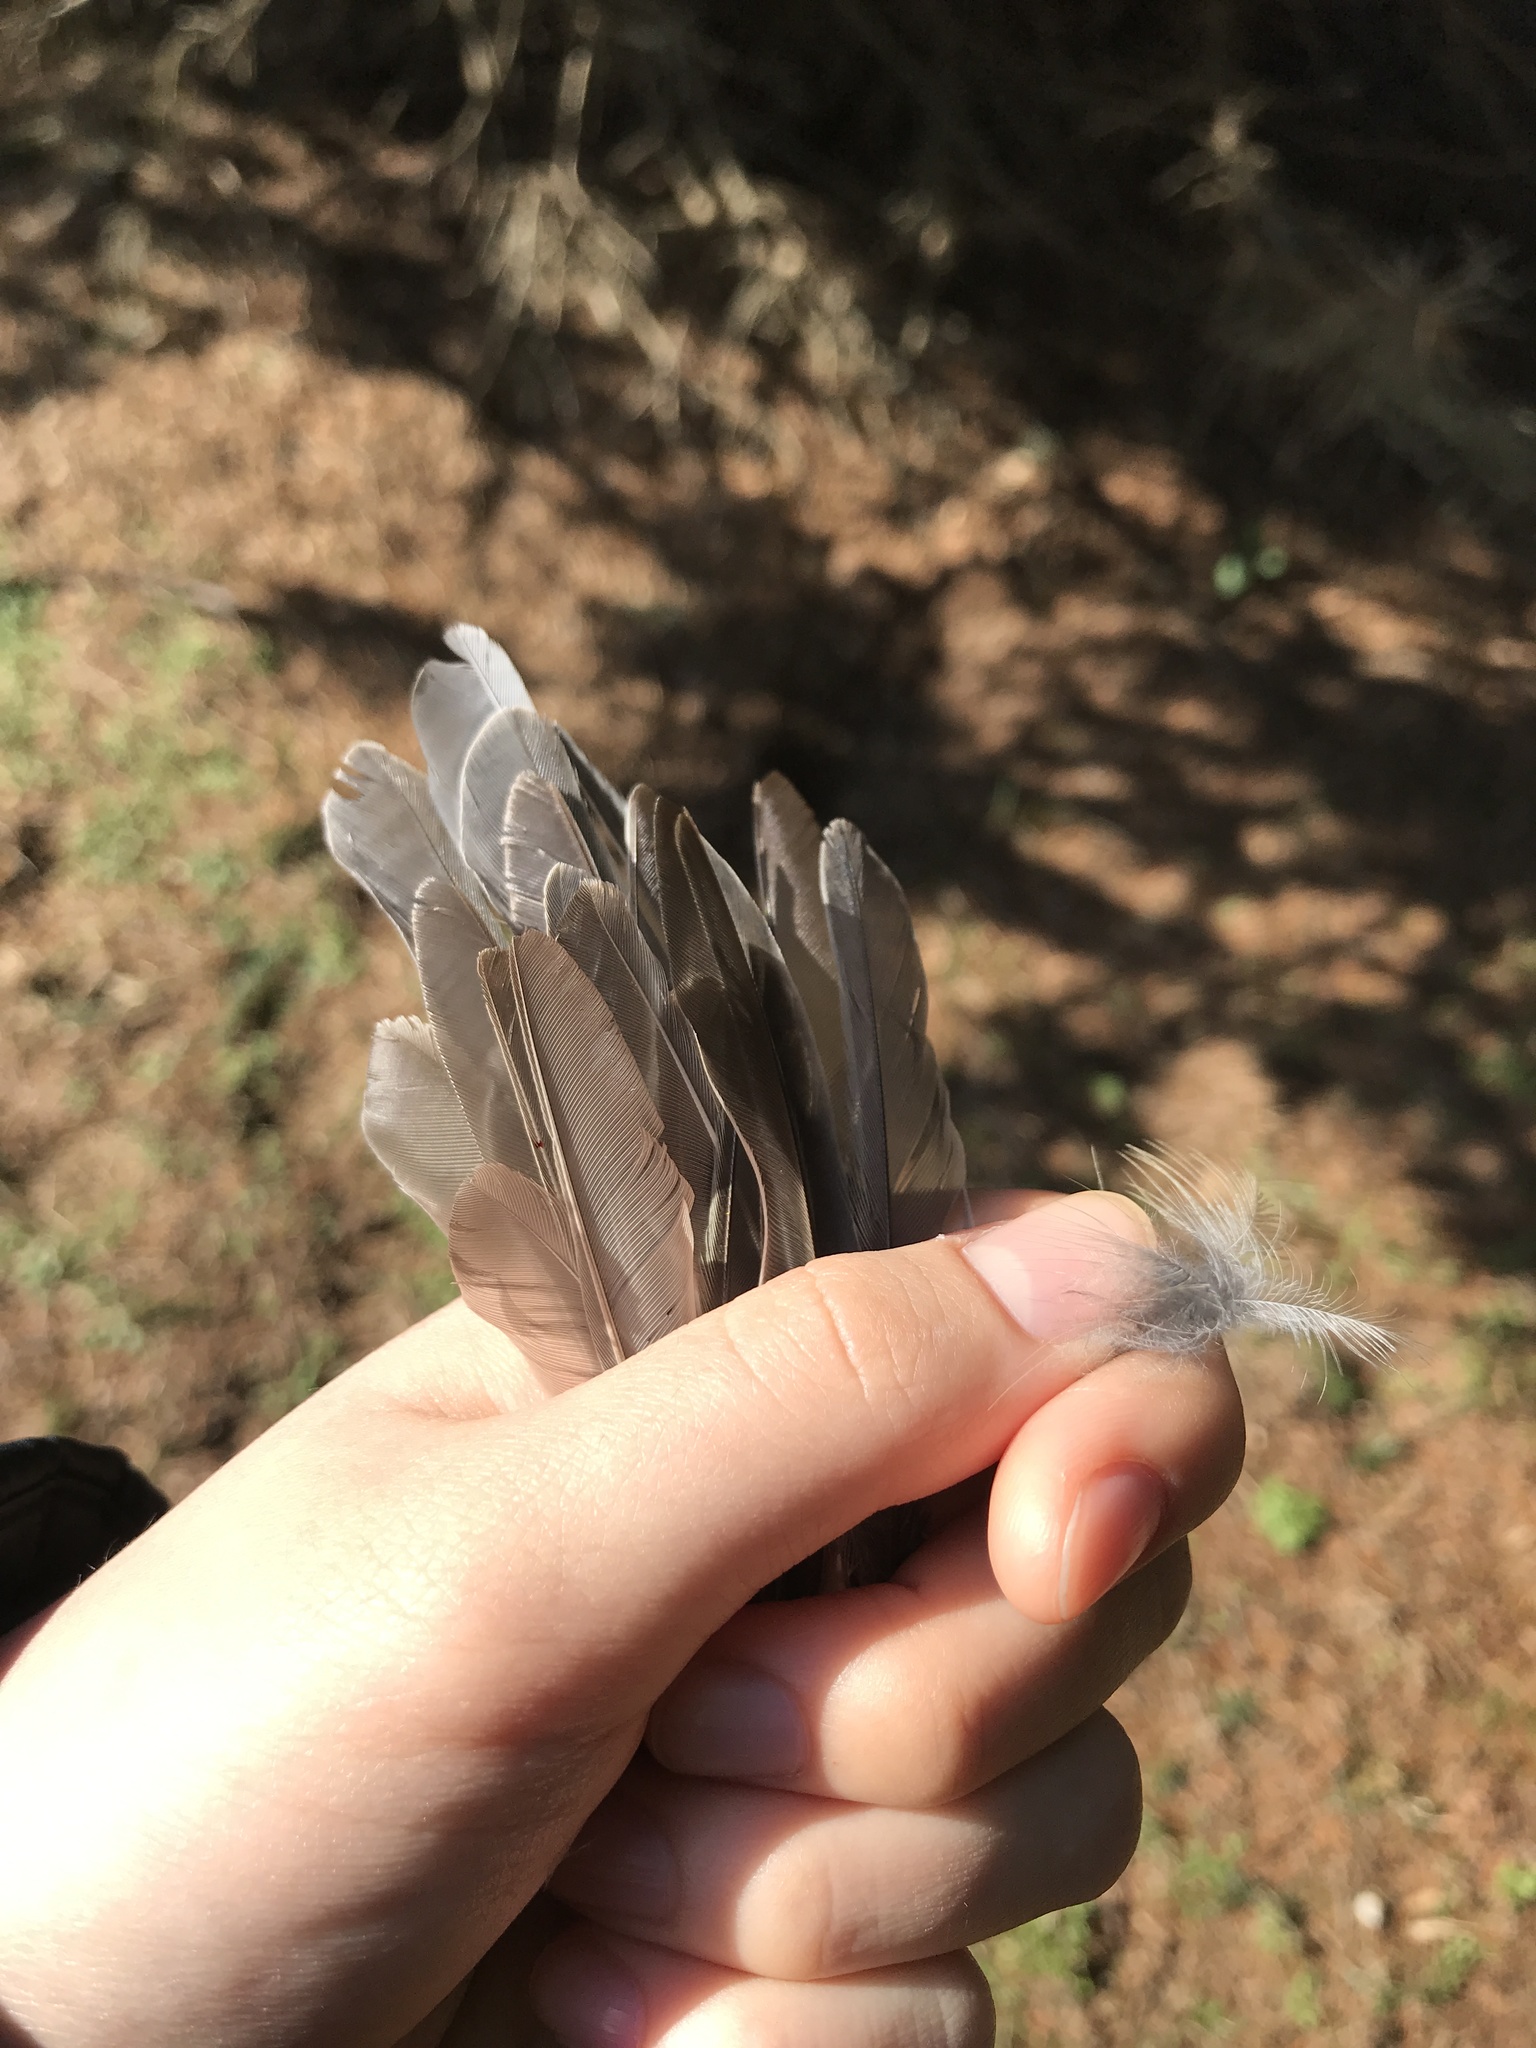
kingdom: Animalia
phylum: Chordata
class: Aves
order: Passeriformes
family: Paridae
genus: Baeolophus
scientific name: Baeolophus bicolor
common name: Tufted titmouse
